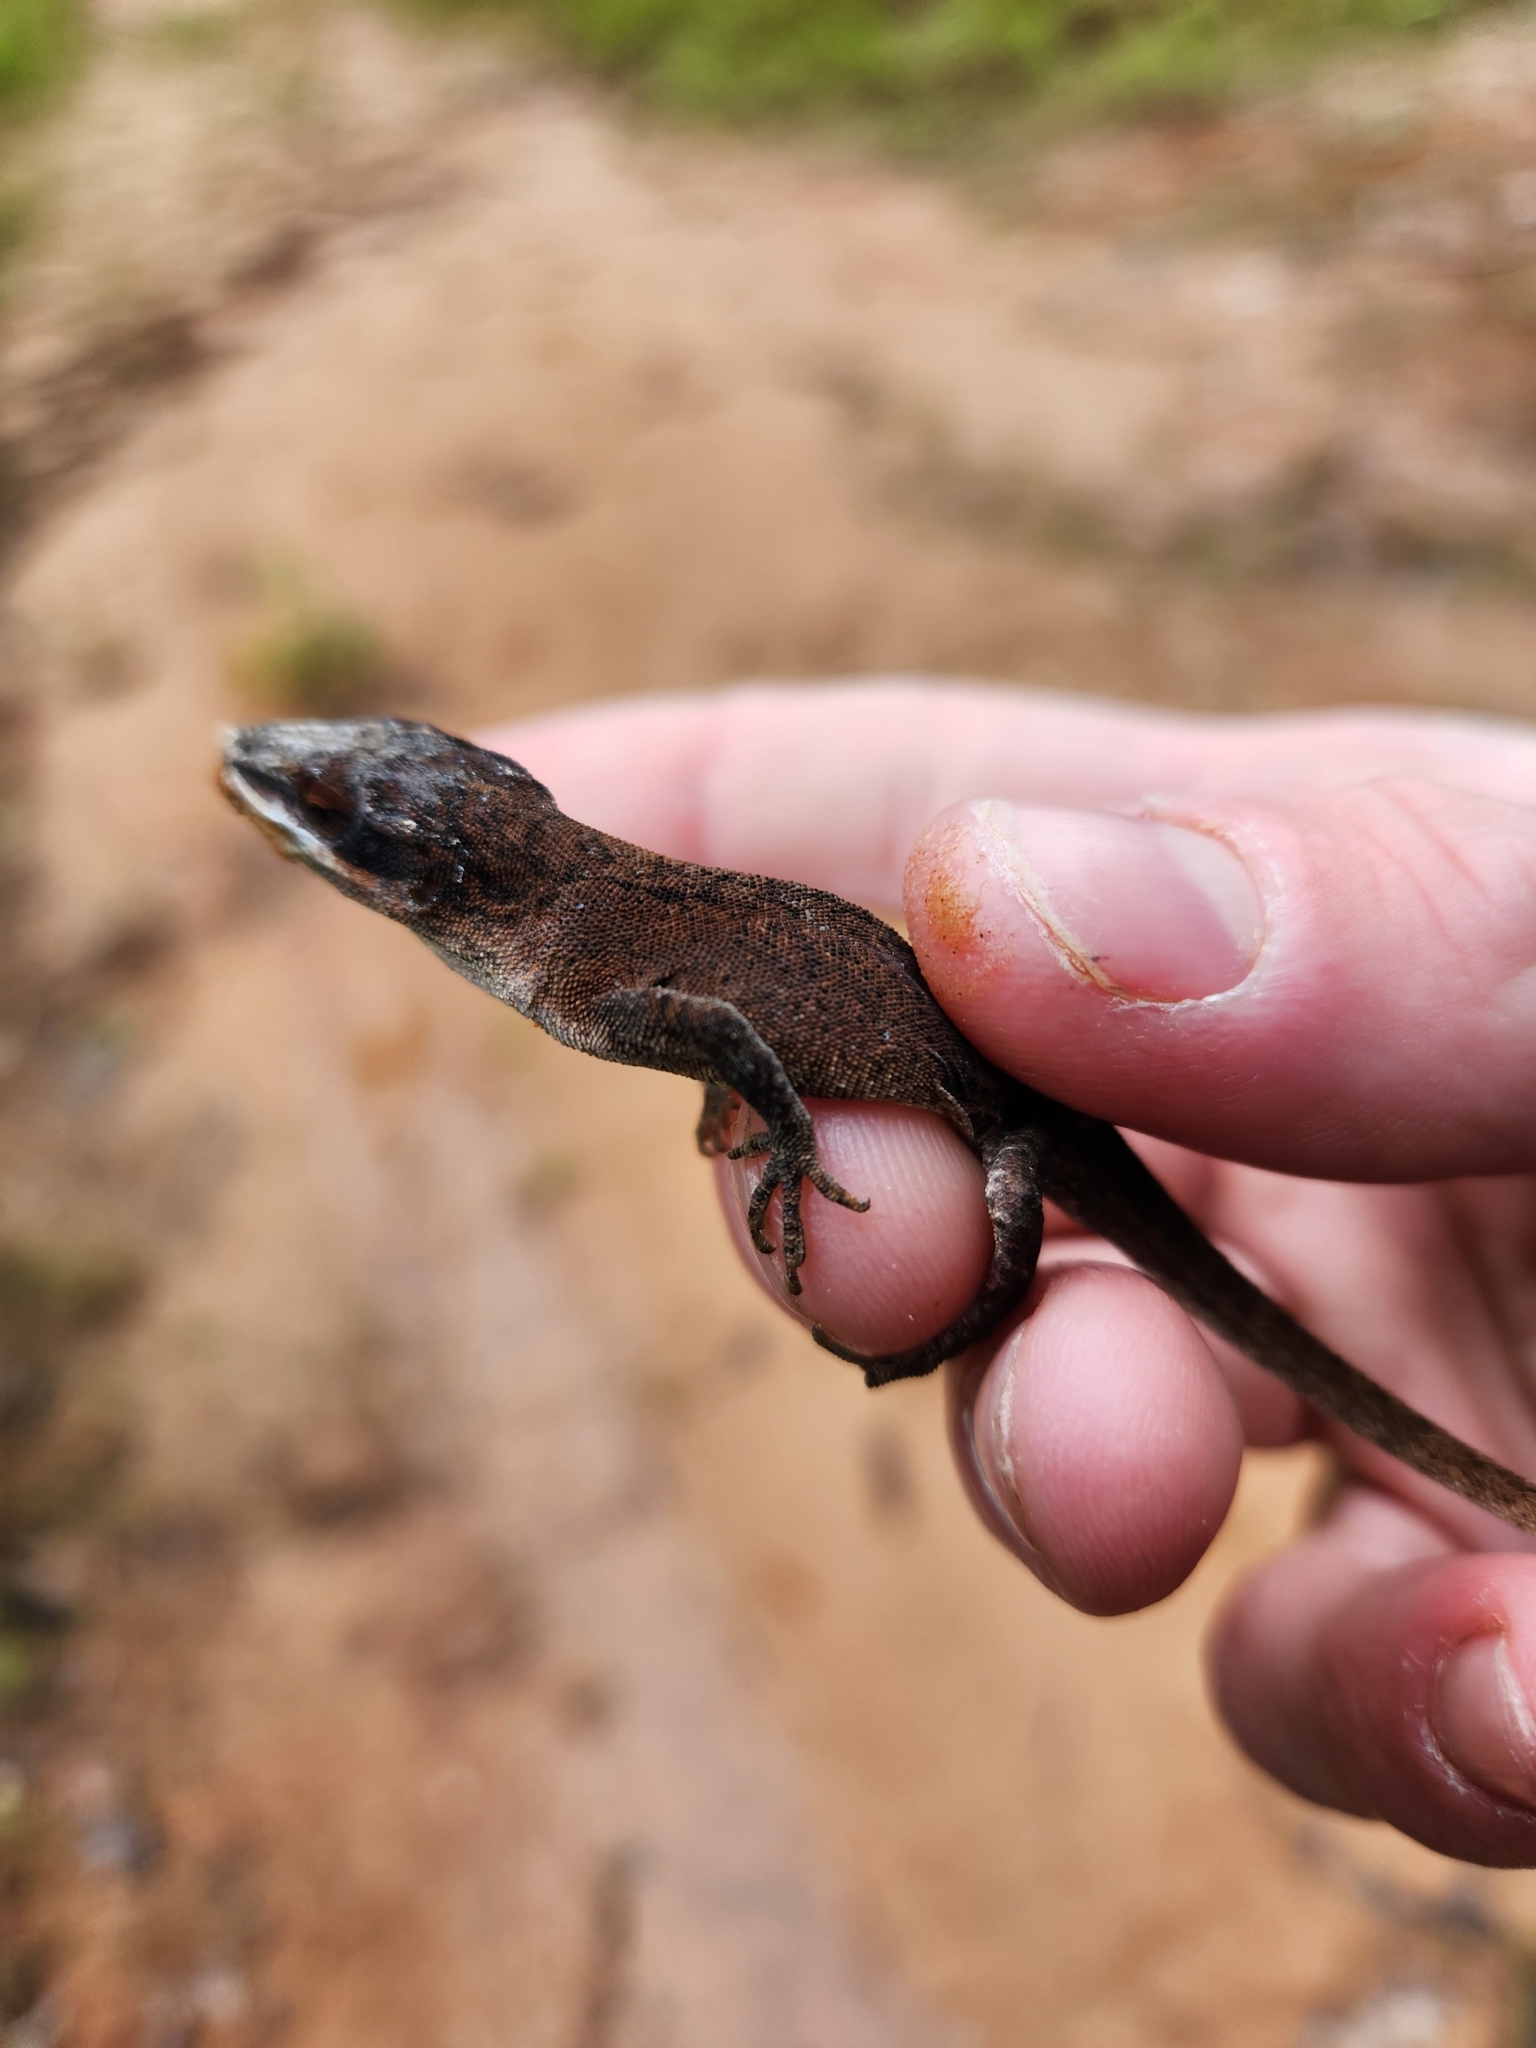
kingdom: Animalia
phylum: Chordata
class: Squamata
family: Dactyloidae
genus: Anolis
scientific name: Anolis carolinensis
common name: Green anole
